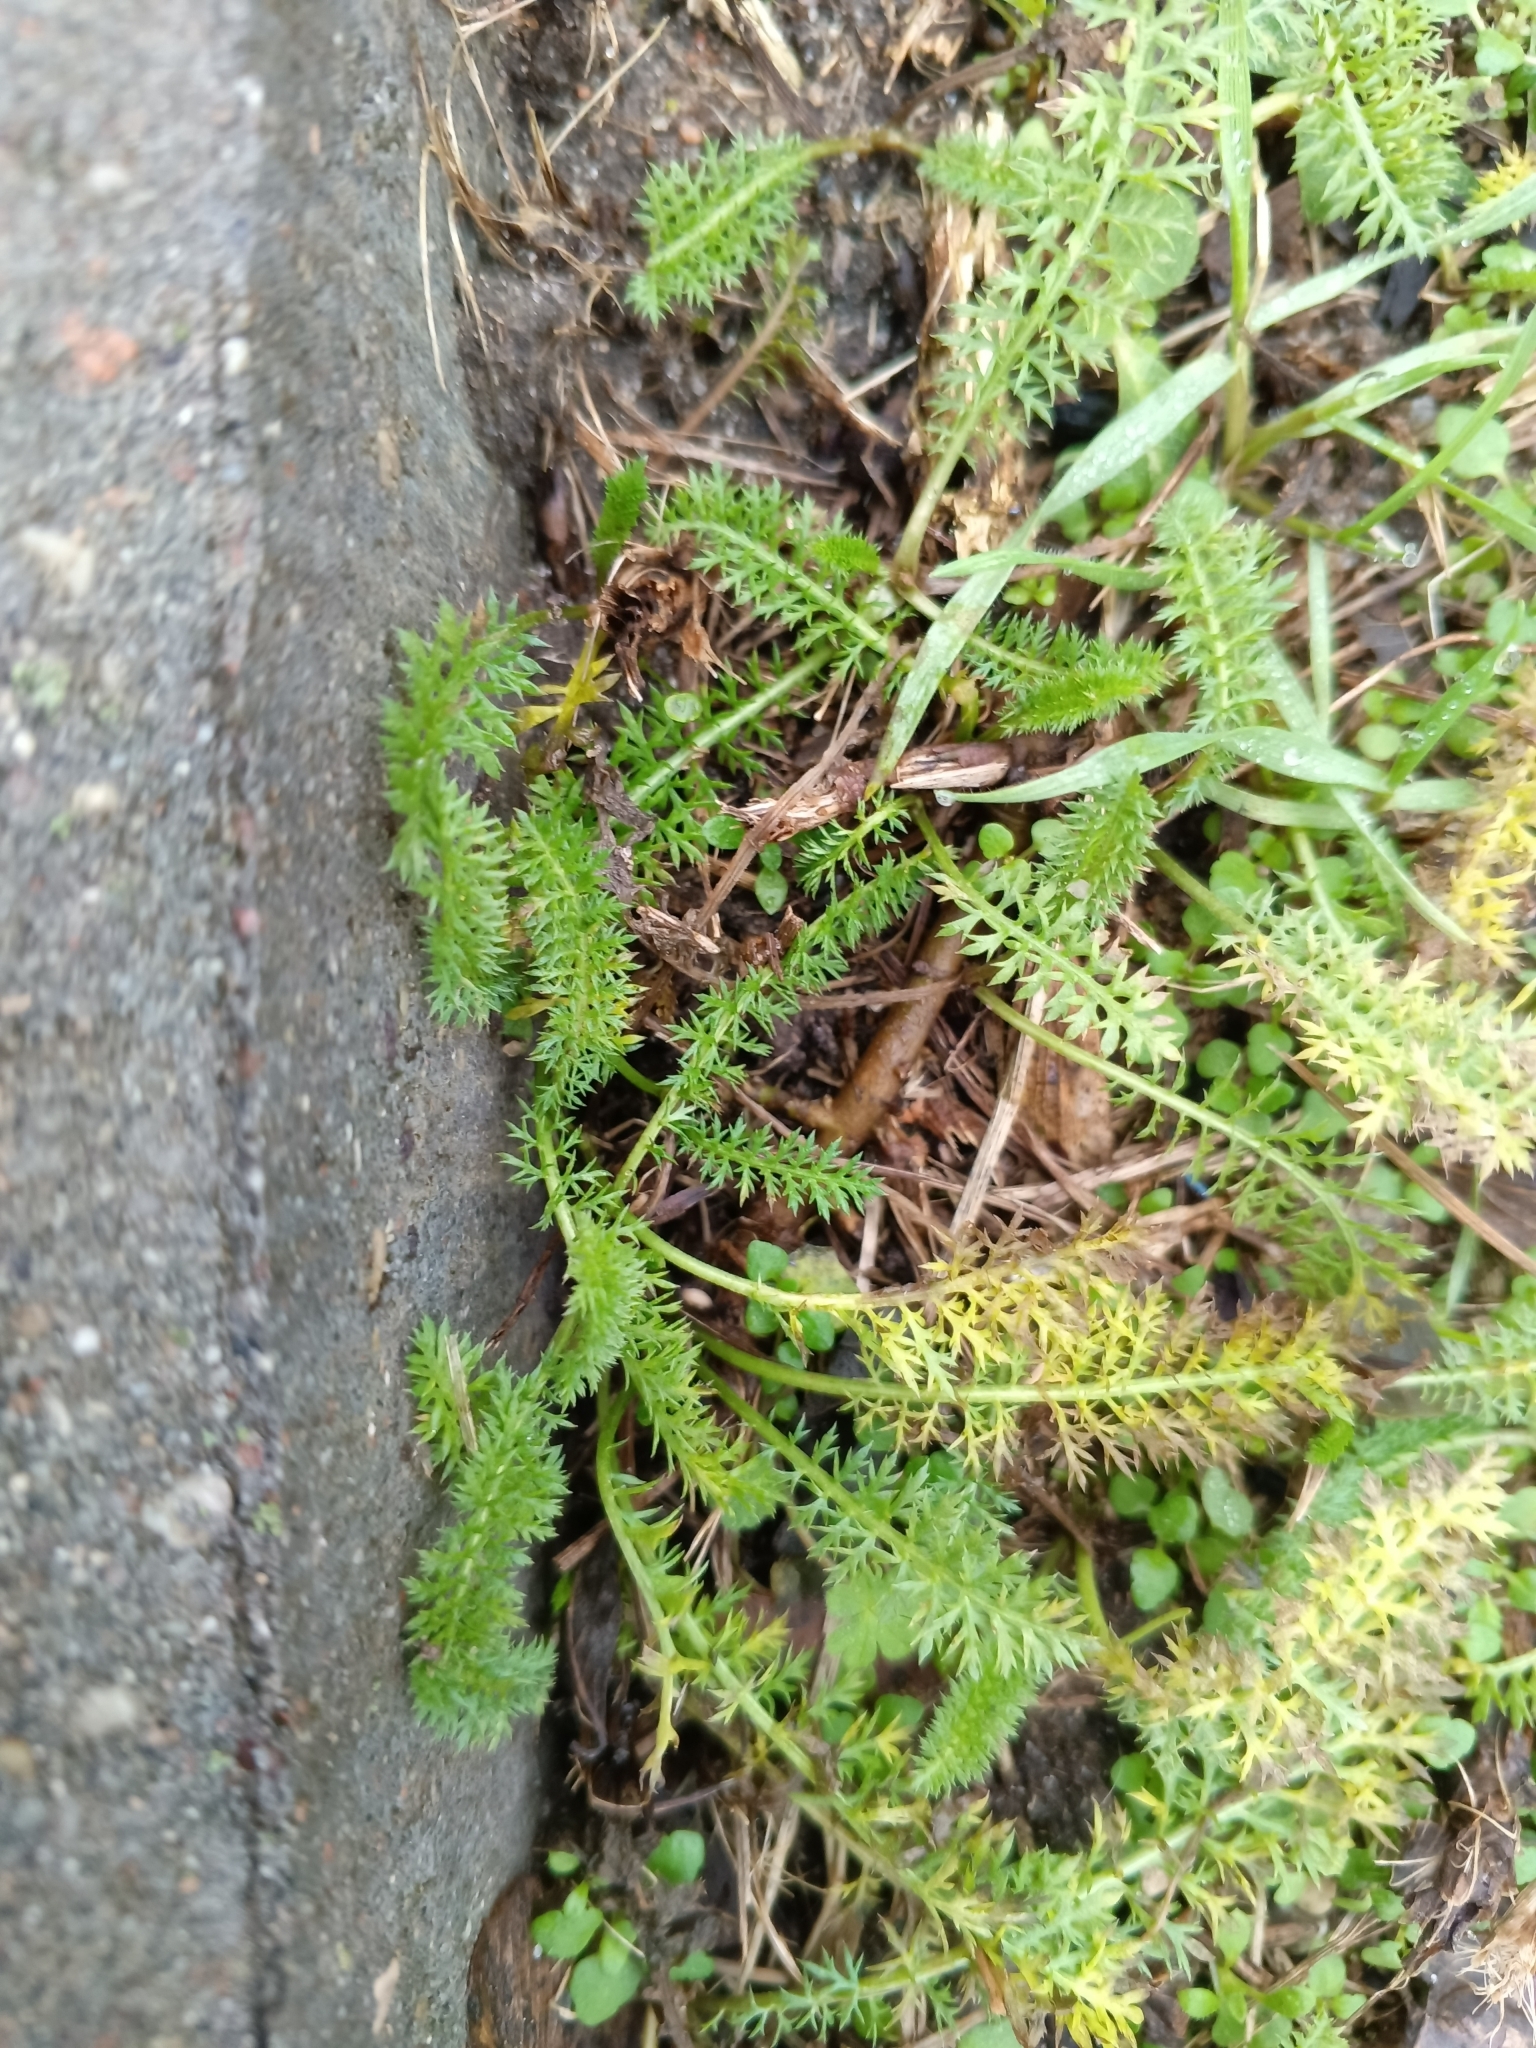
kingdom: Plantae
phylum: Tracheophyta
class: Magnoliopsida
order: Asterales
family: Asteraceae
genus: Achillea
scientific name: Achillea millefolium
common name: Yarrow
